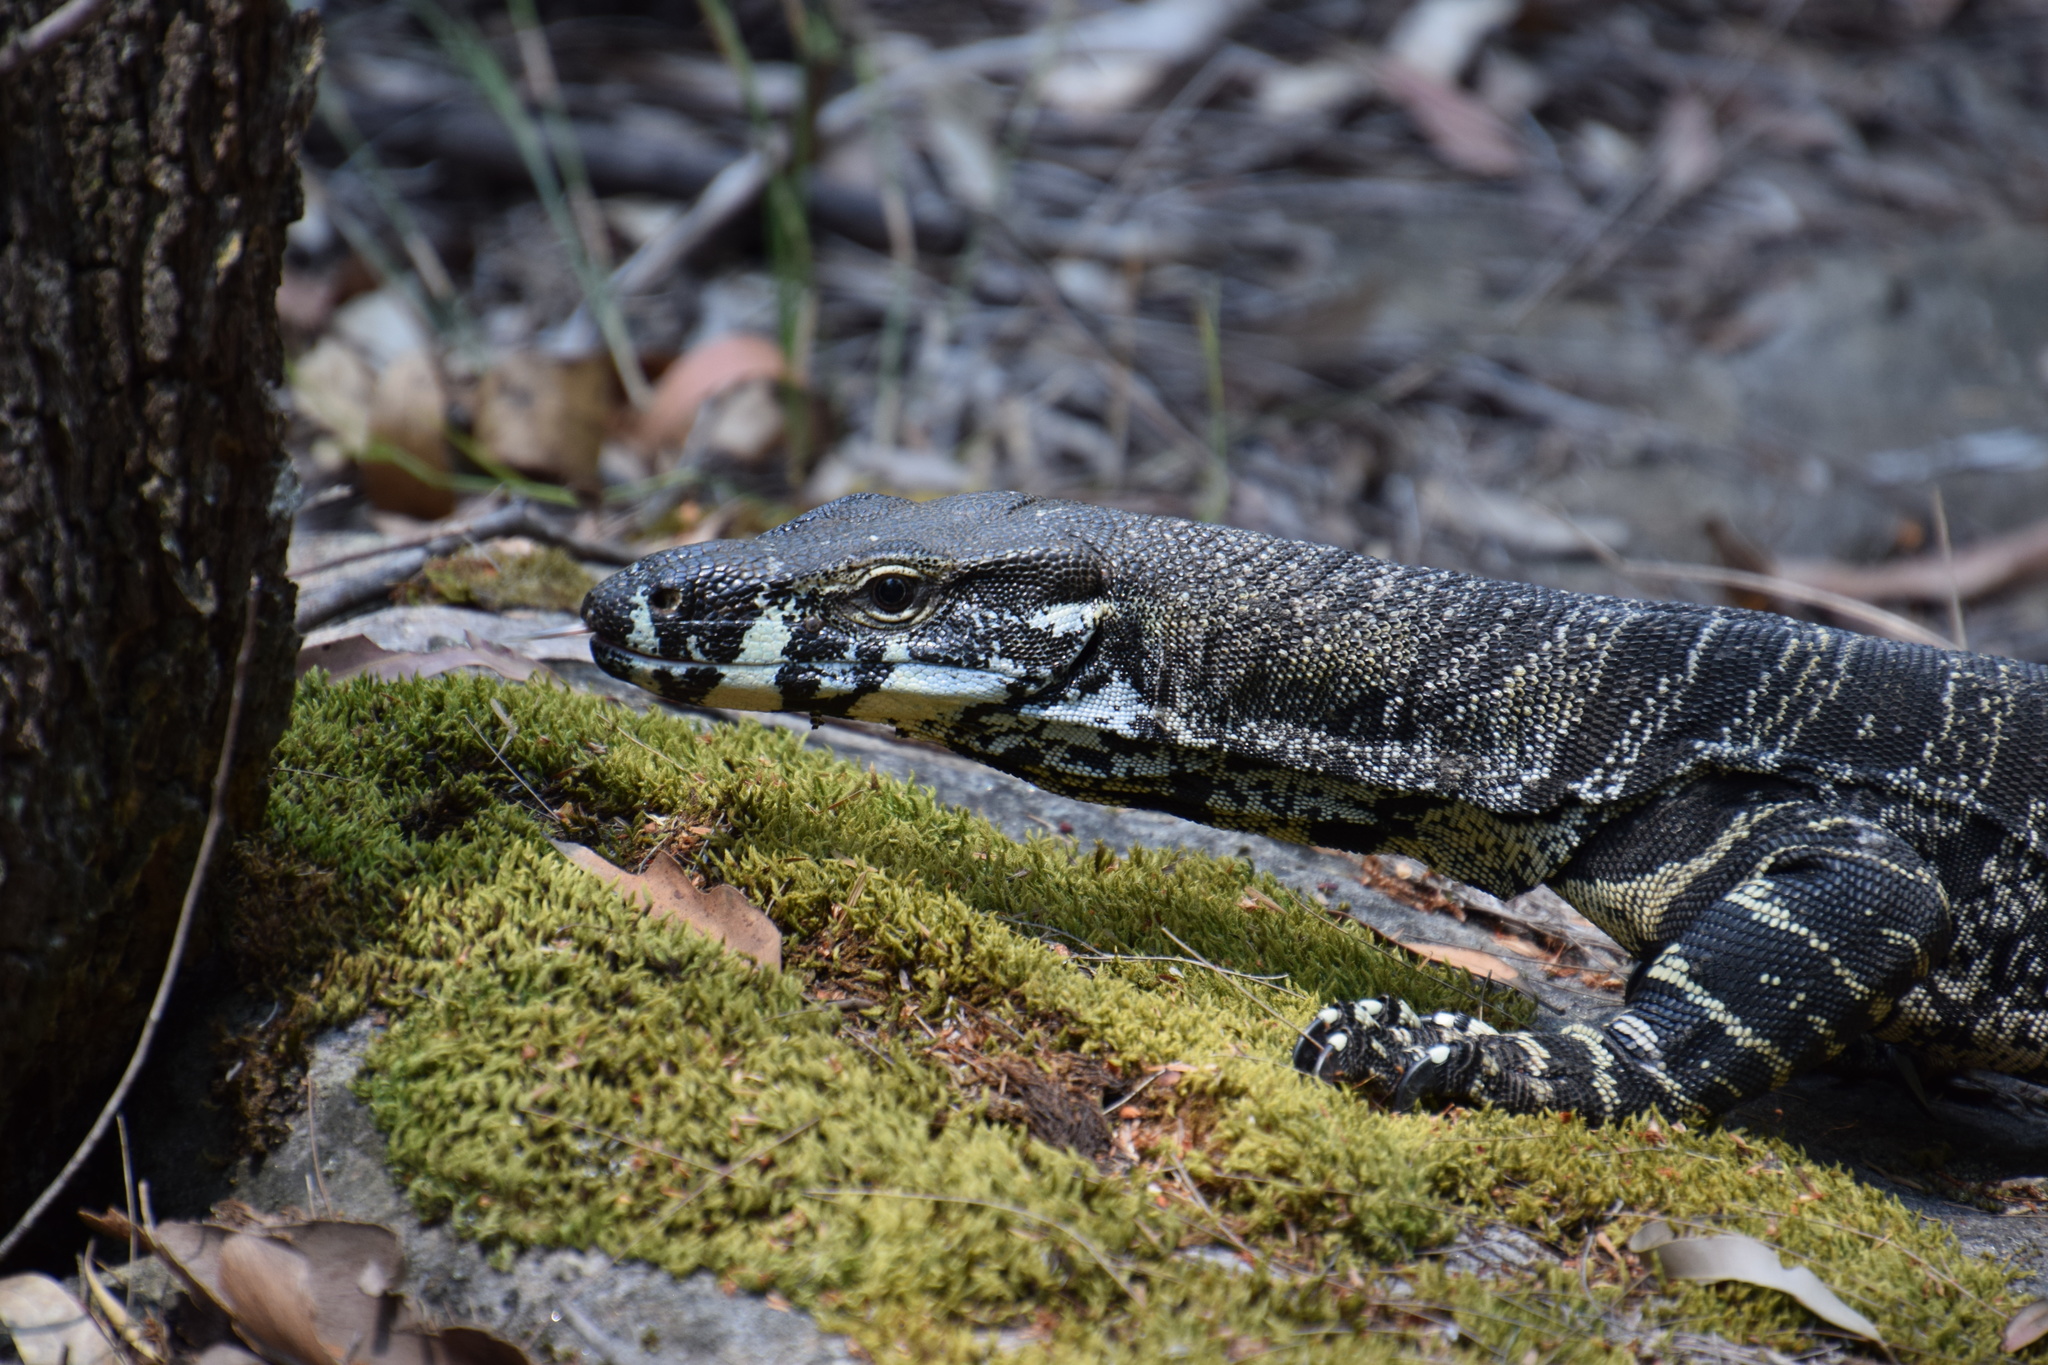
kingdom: Animalia
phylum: Chordata
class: Squamata
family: Varanidae
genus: Varanus
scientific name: Varanus varius
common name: Lace monitor
